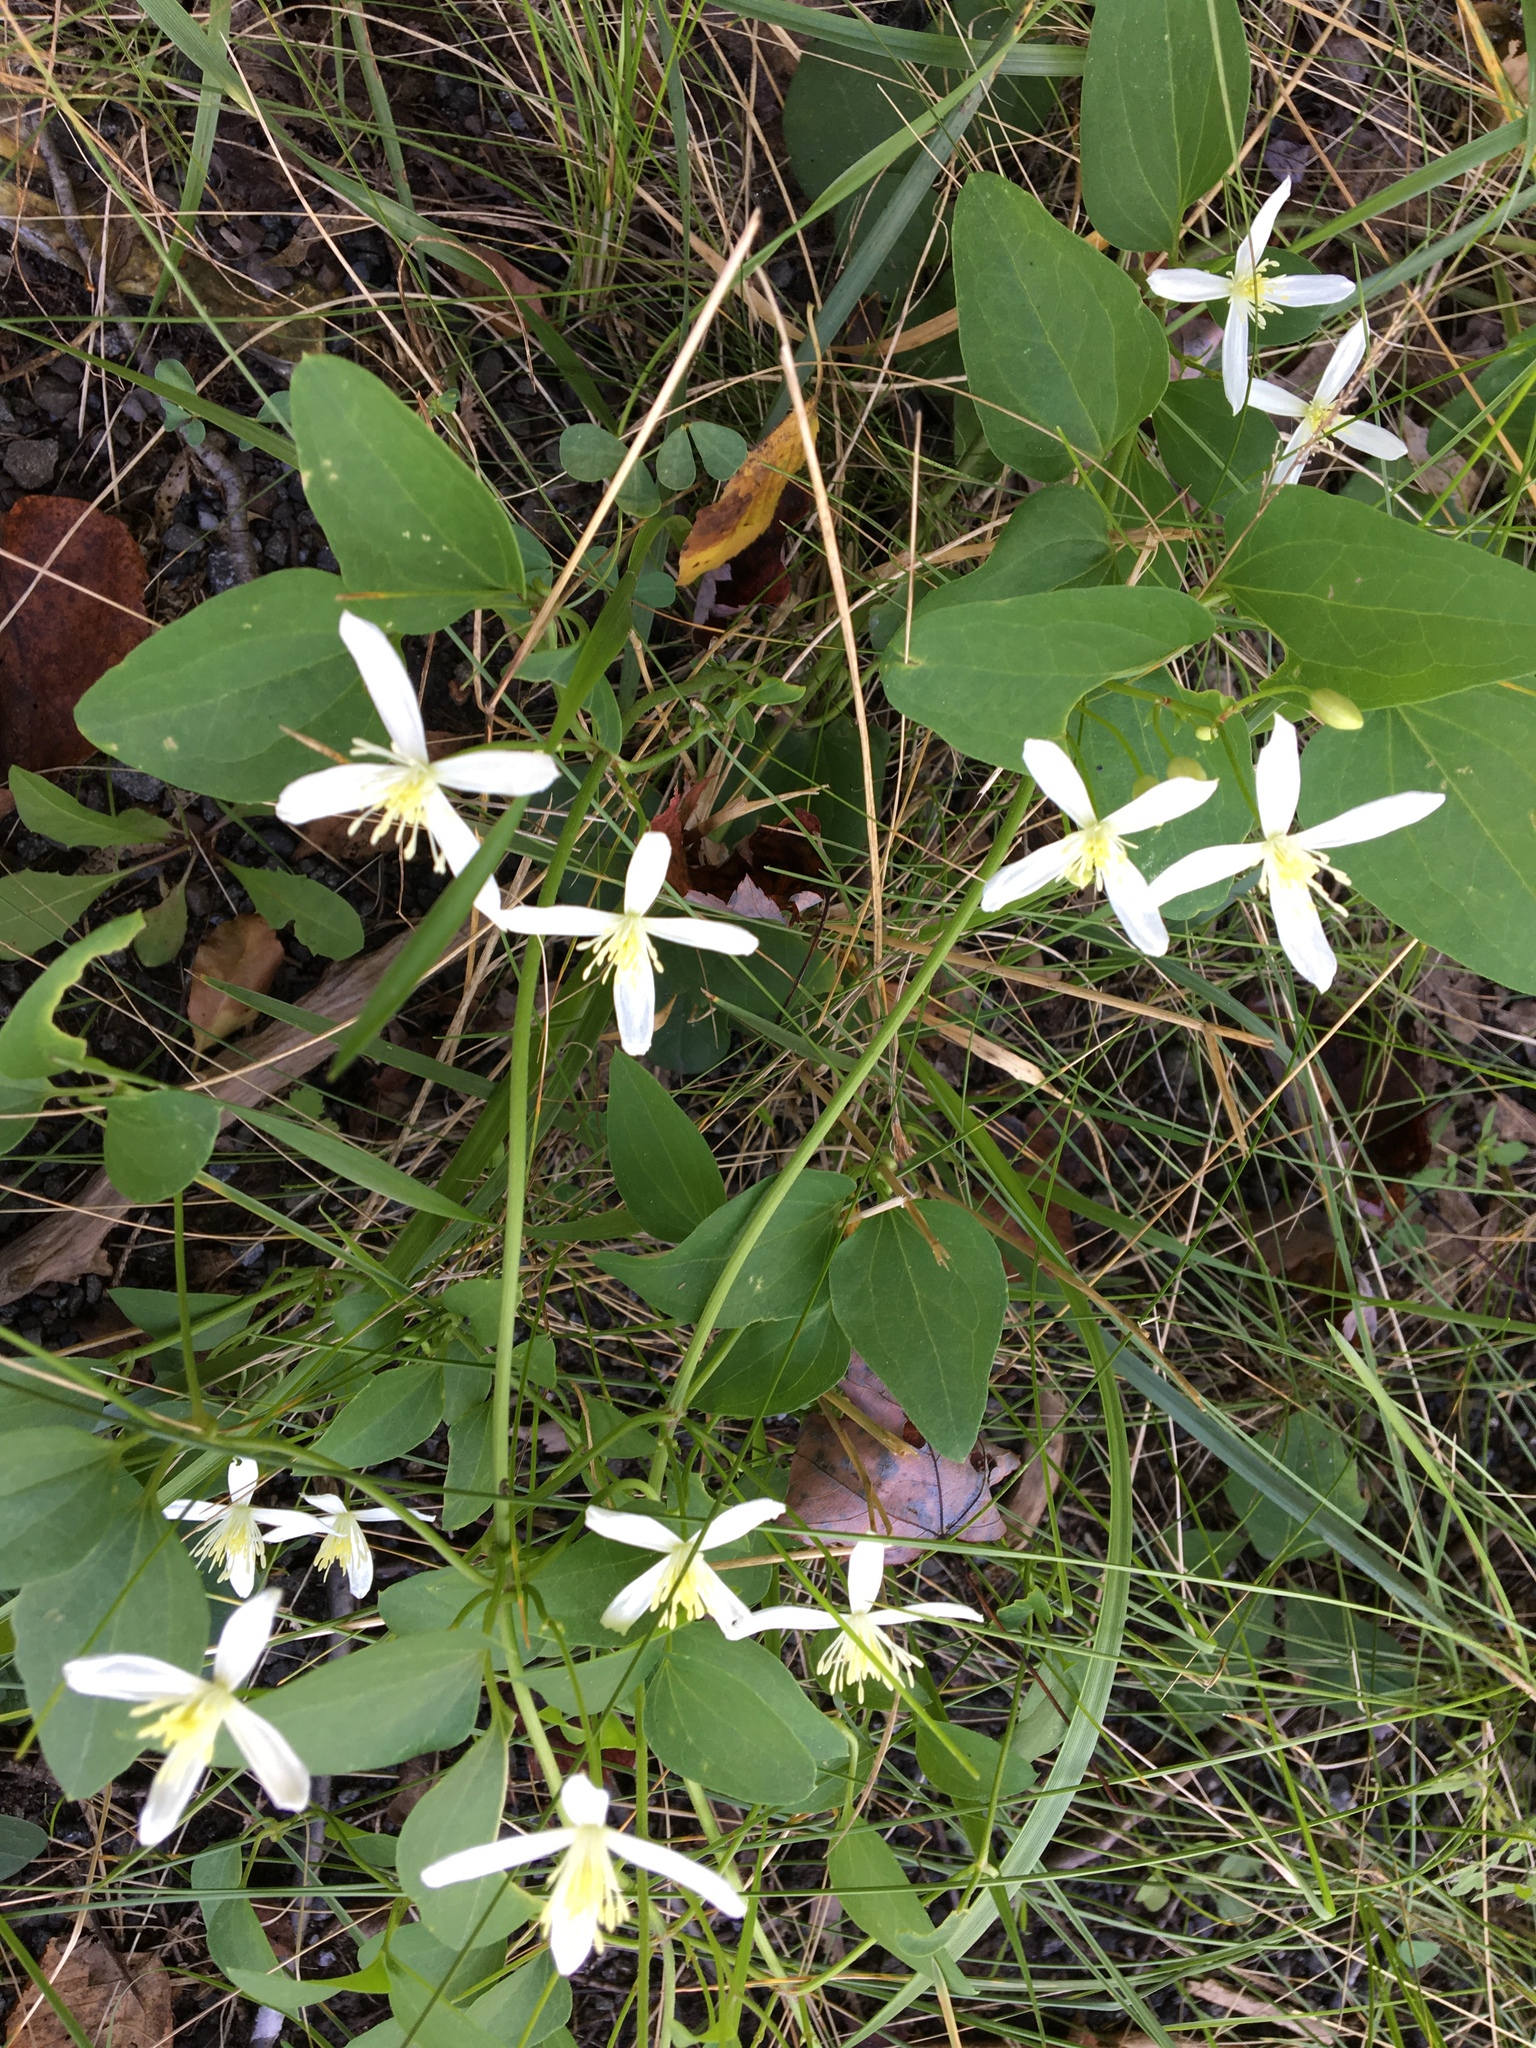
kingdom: Plantae
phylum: Tracheophyta
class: Magnoliopsida
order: Ranunculales
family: Ranunculaceae
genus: Clematis
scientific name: Clematis terniflora
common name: Sweet autumn clematis
